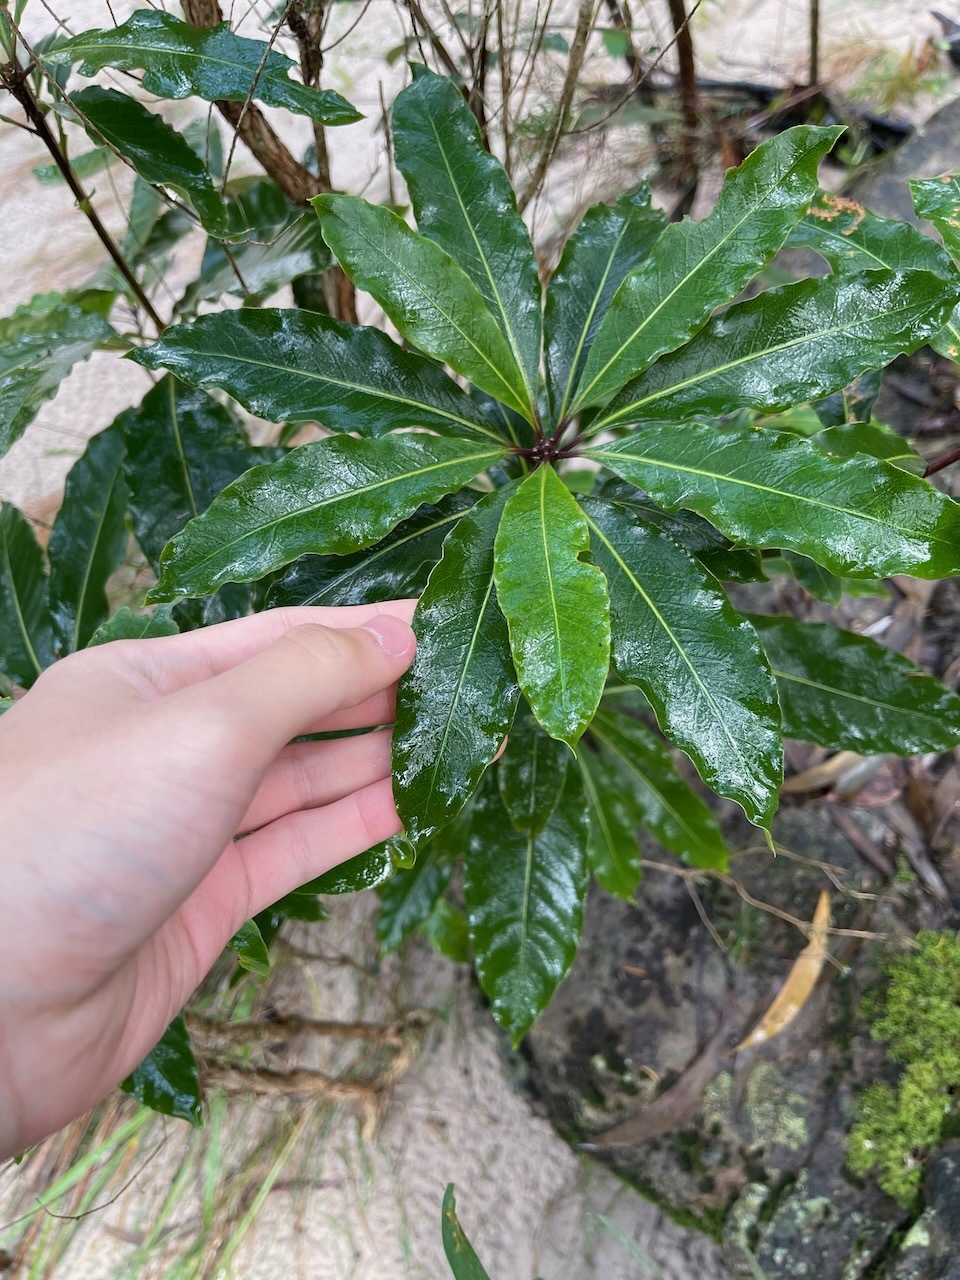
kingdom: Plantae
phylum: Tracheophyta
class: Magnoliopsida
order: Apiales
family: Pittosporaceae
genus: Pittosporum
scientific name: Pittosporum undulatum
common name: Australian cheesewood
